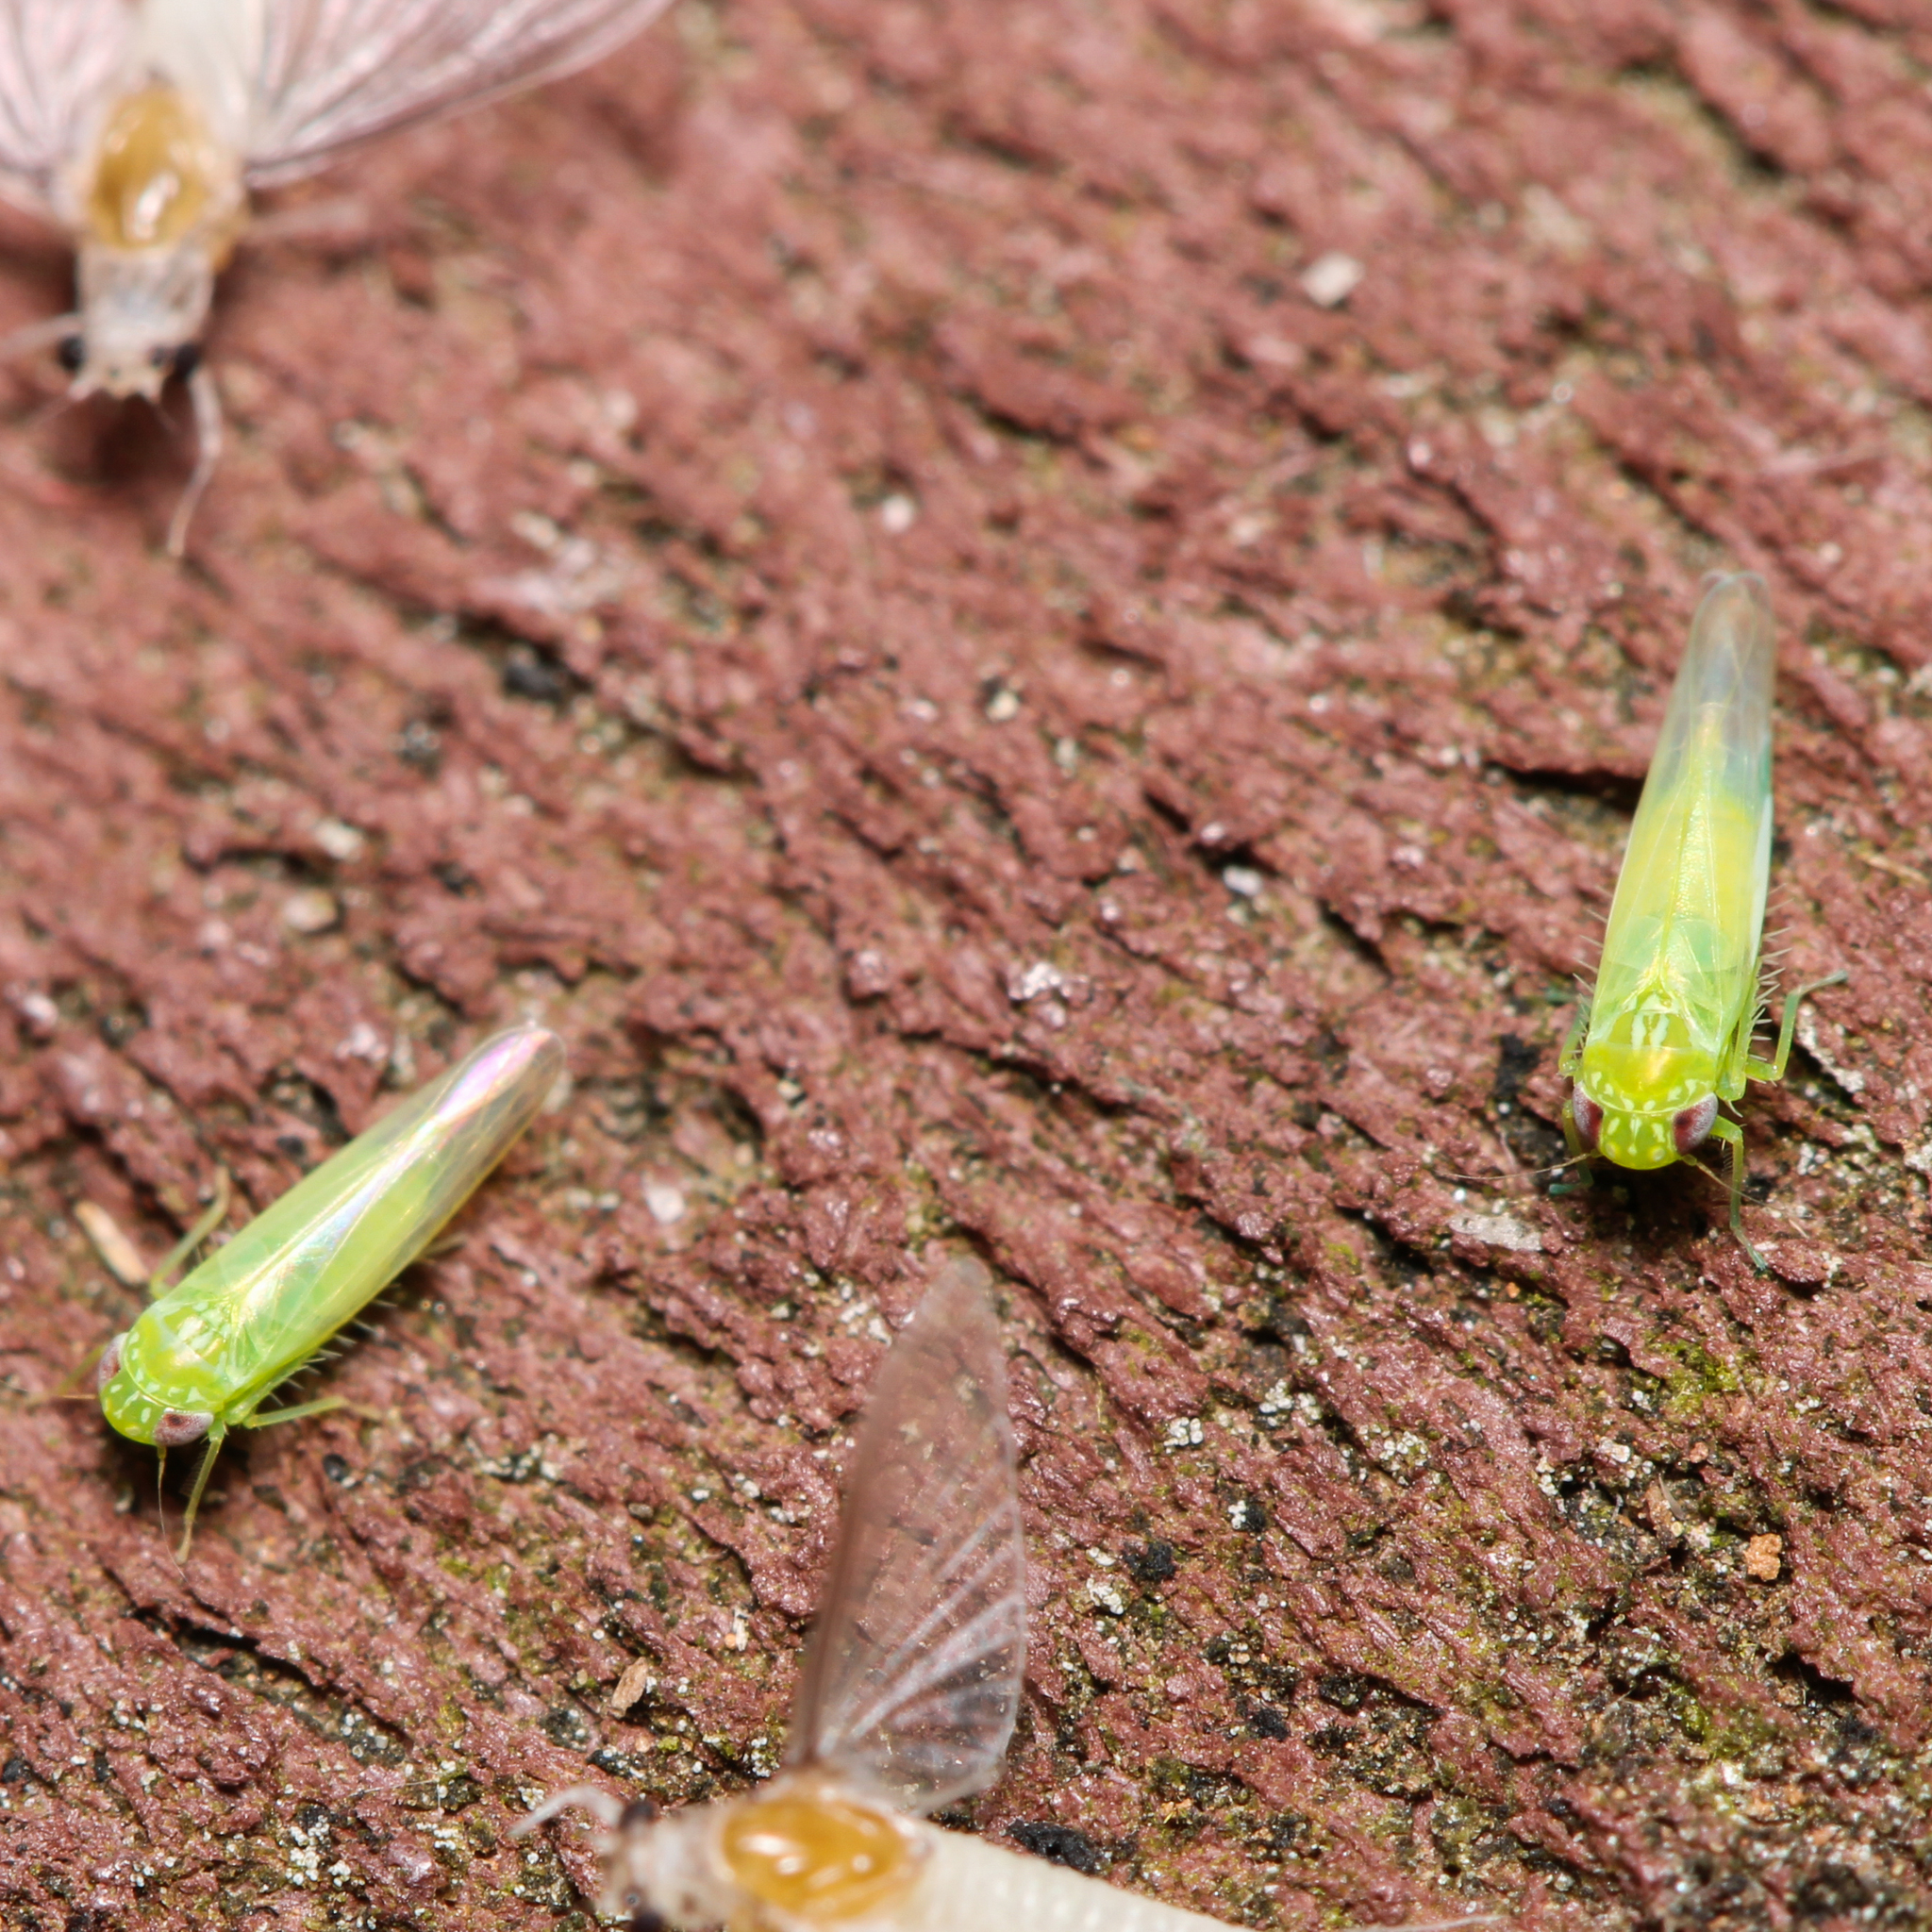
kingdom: Animalia
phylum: Arthropoda
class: Insecta
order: Hemiptera
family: Cicadellidae
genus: Empoasca
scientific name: Empoasca fabae
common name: Potato leafhopper
